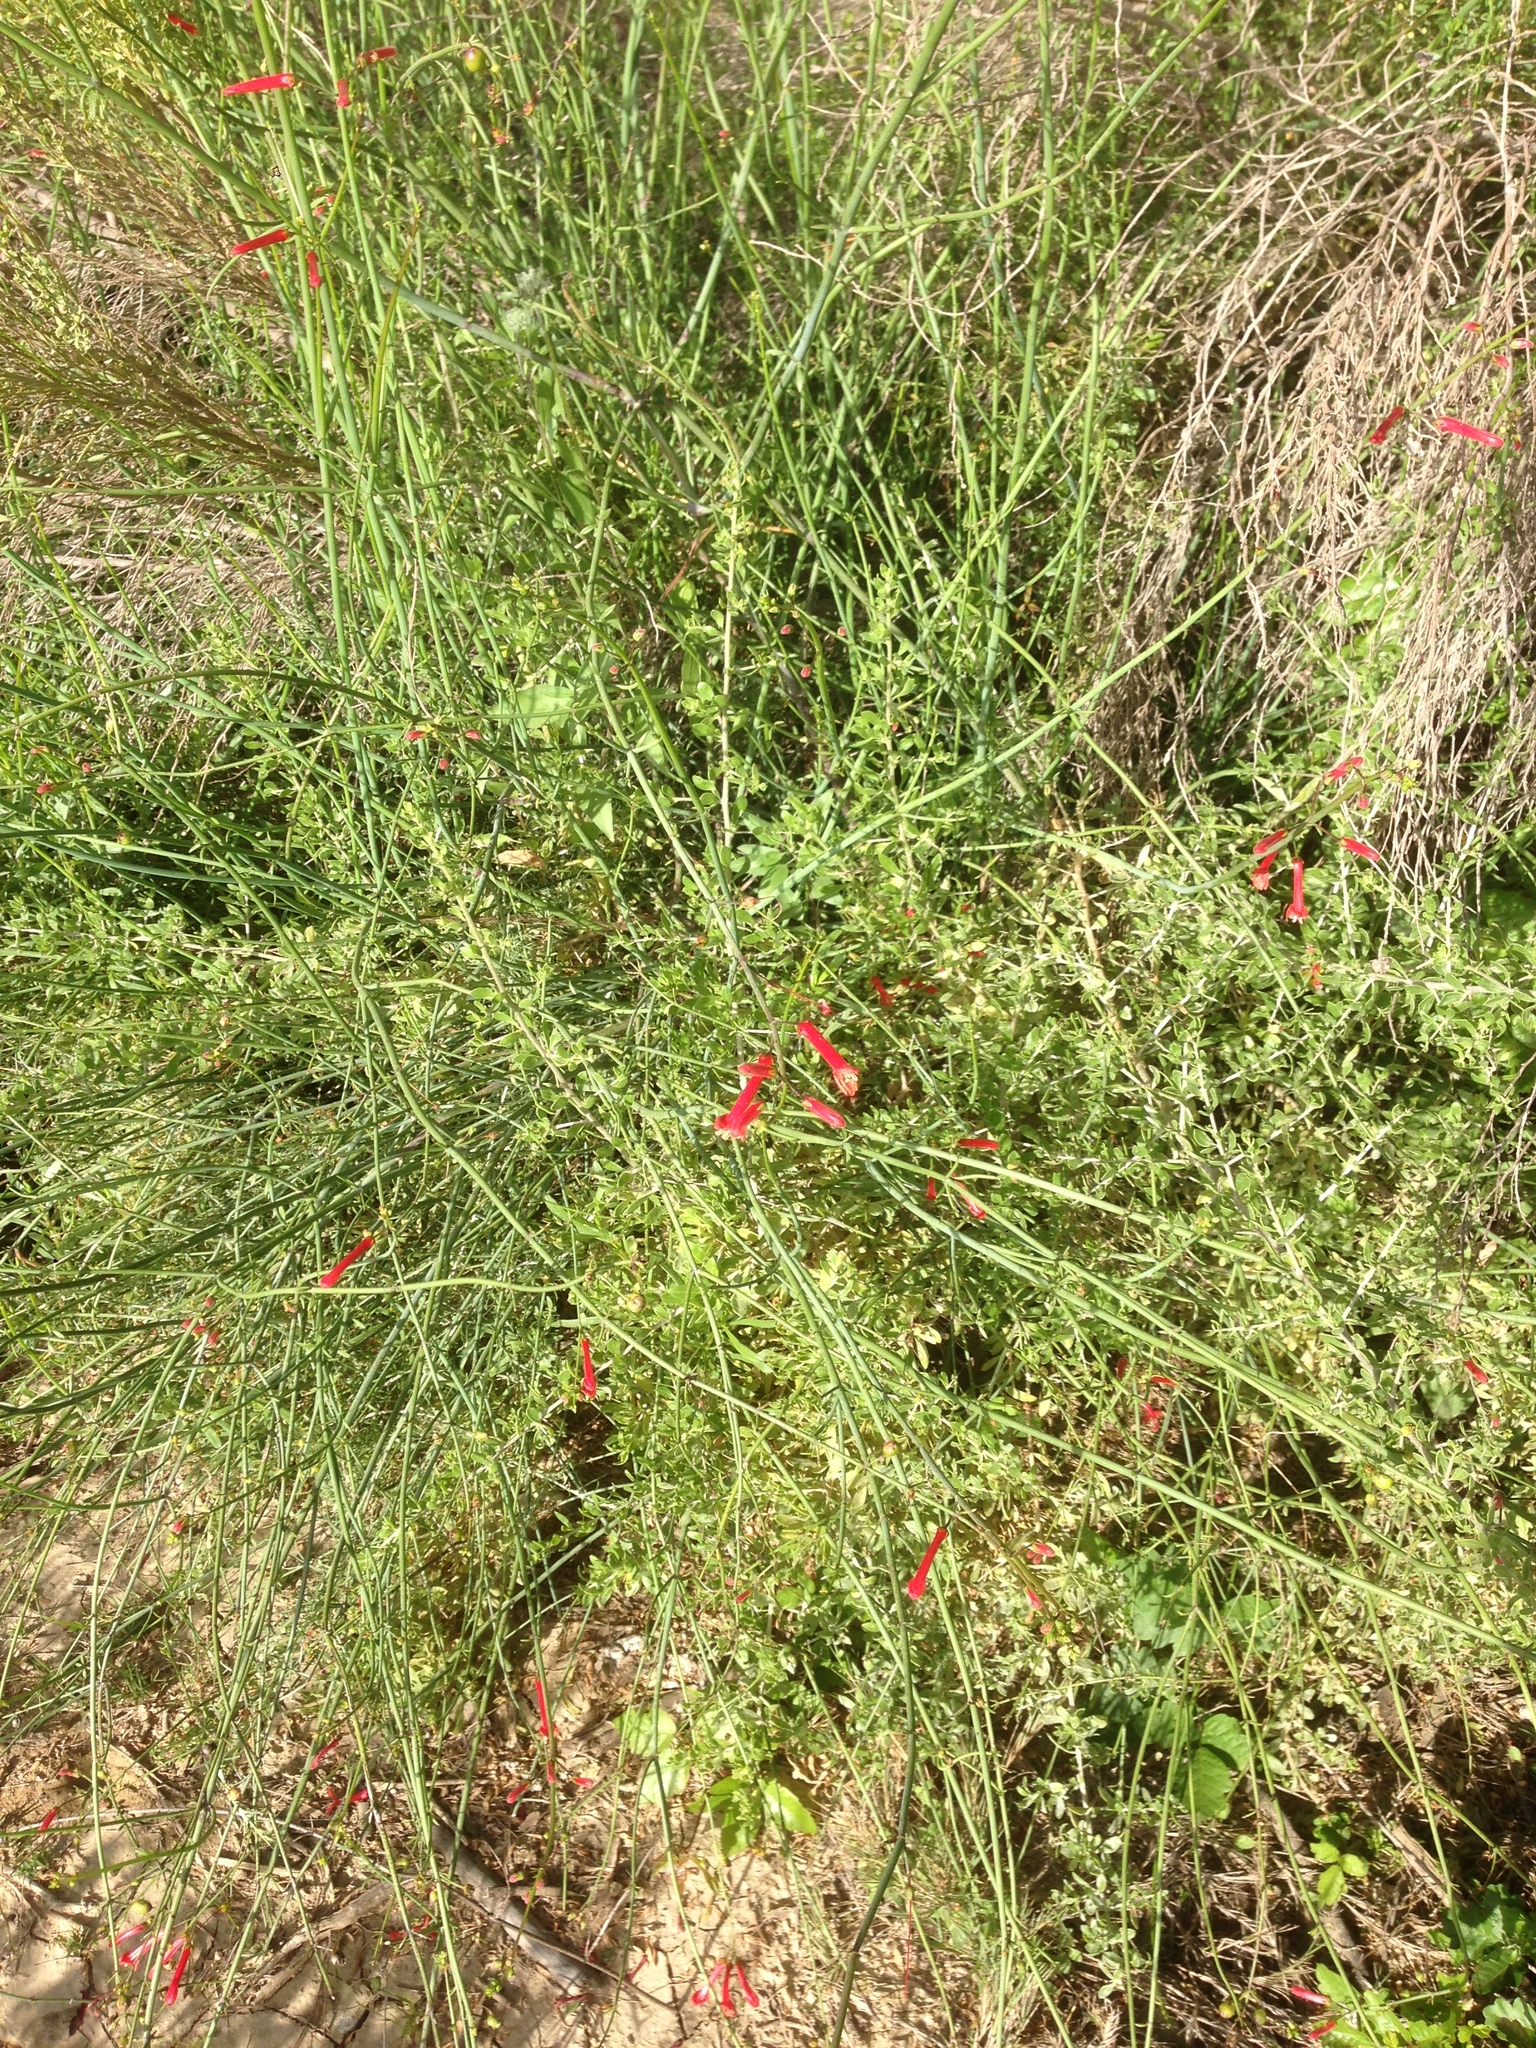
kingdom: Plantae
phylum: Tracheophyta
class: Magnoliopsida
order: Lamiales
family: Plantaginaceae
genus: Gambelia
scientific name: Gambelia juncea
